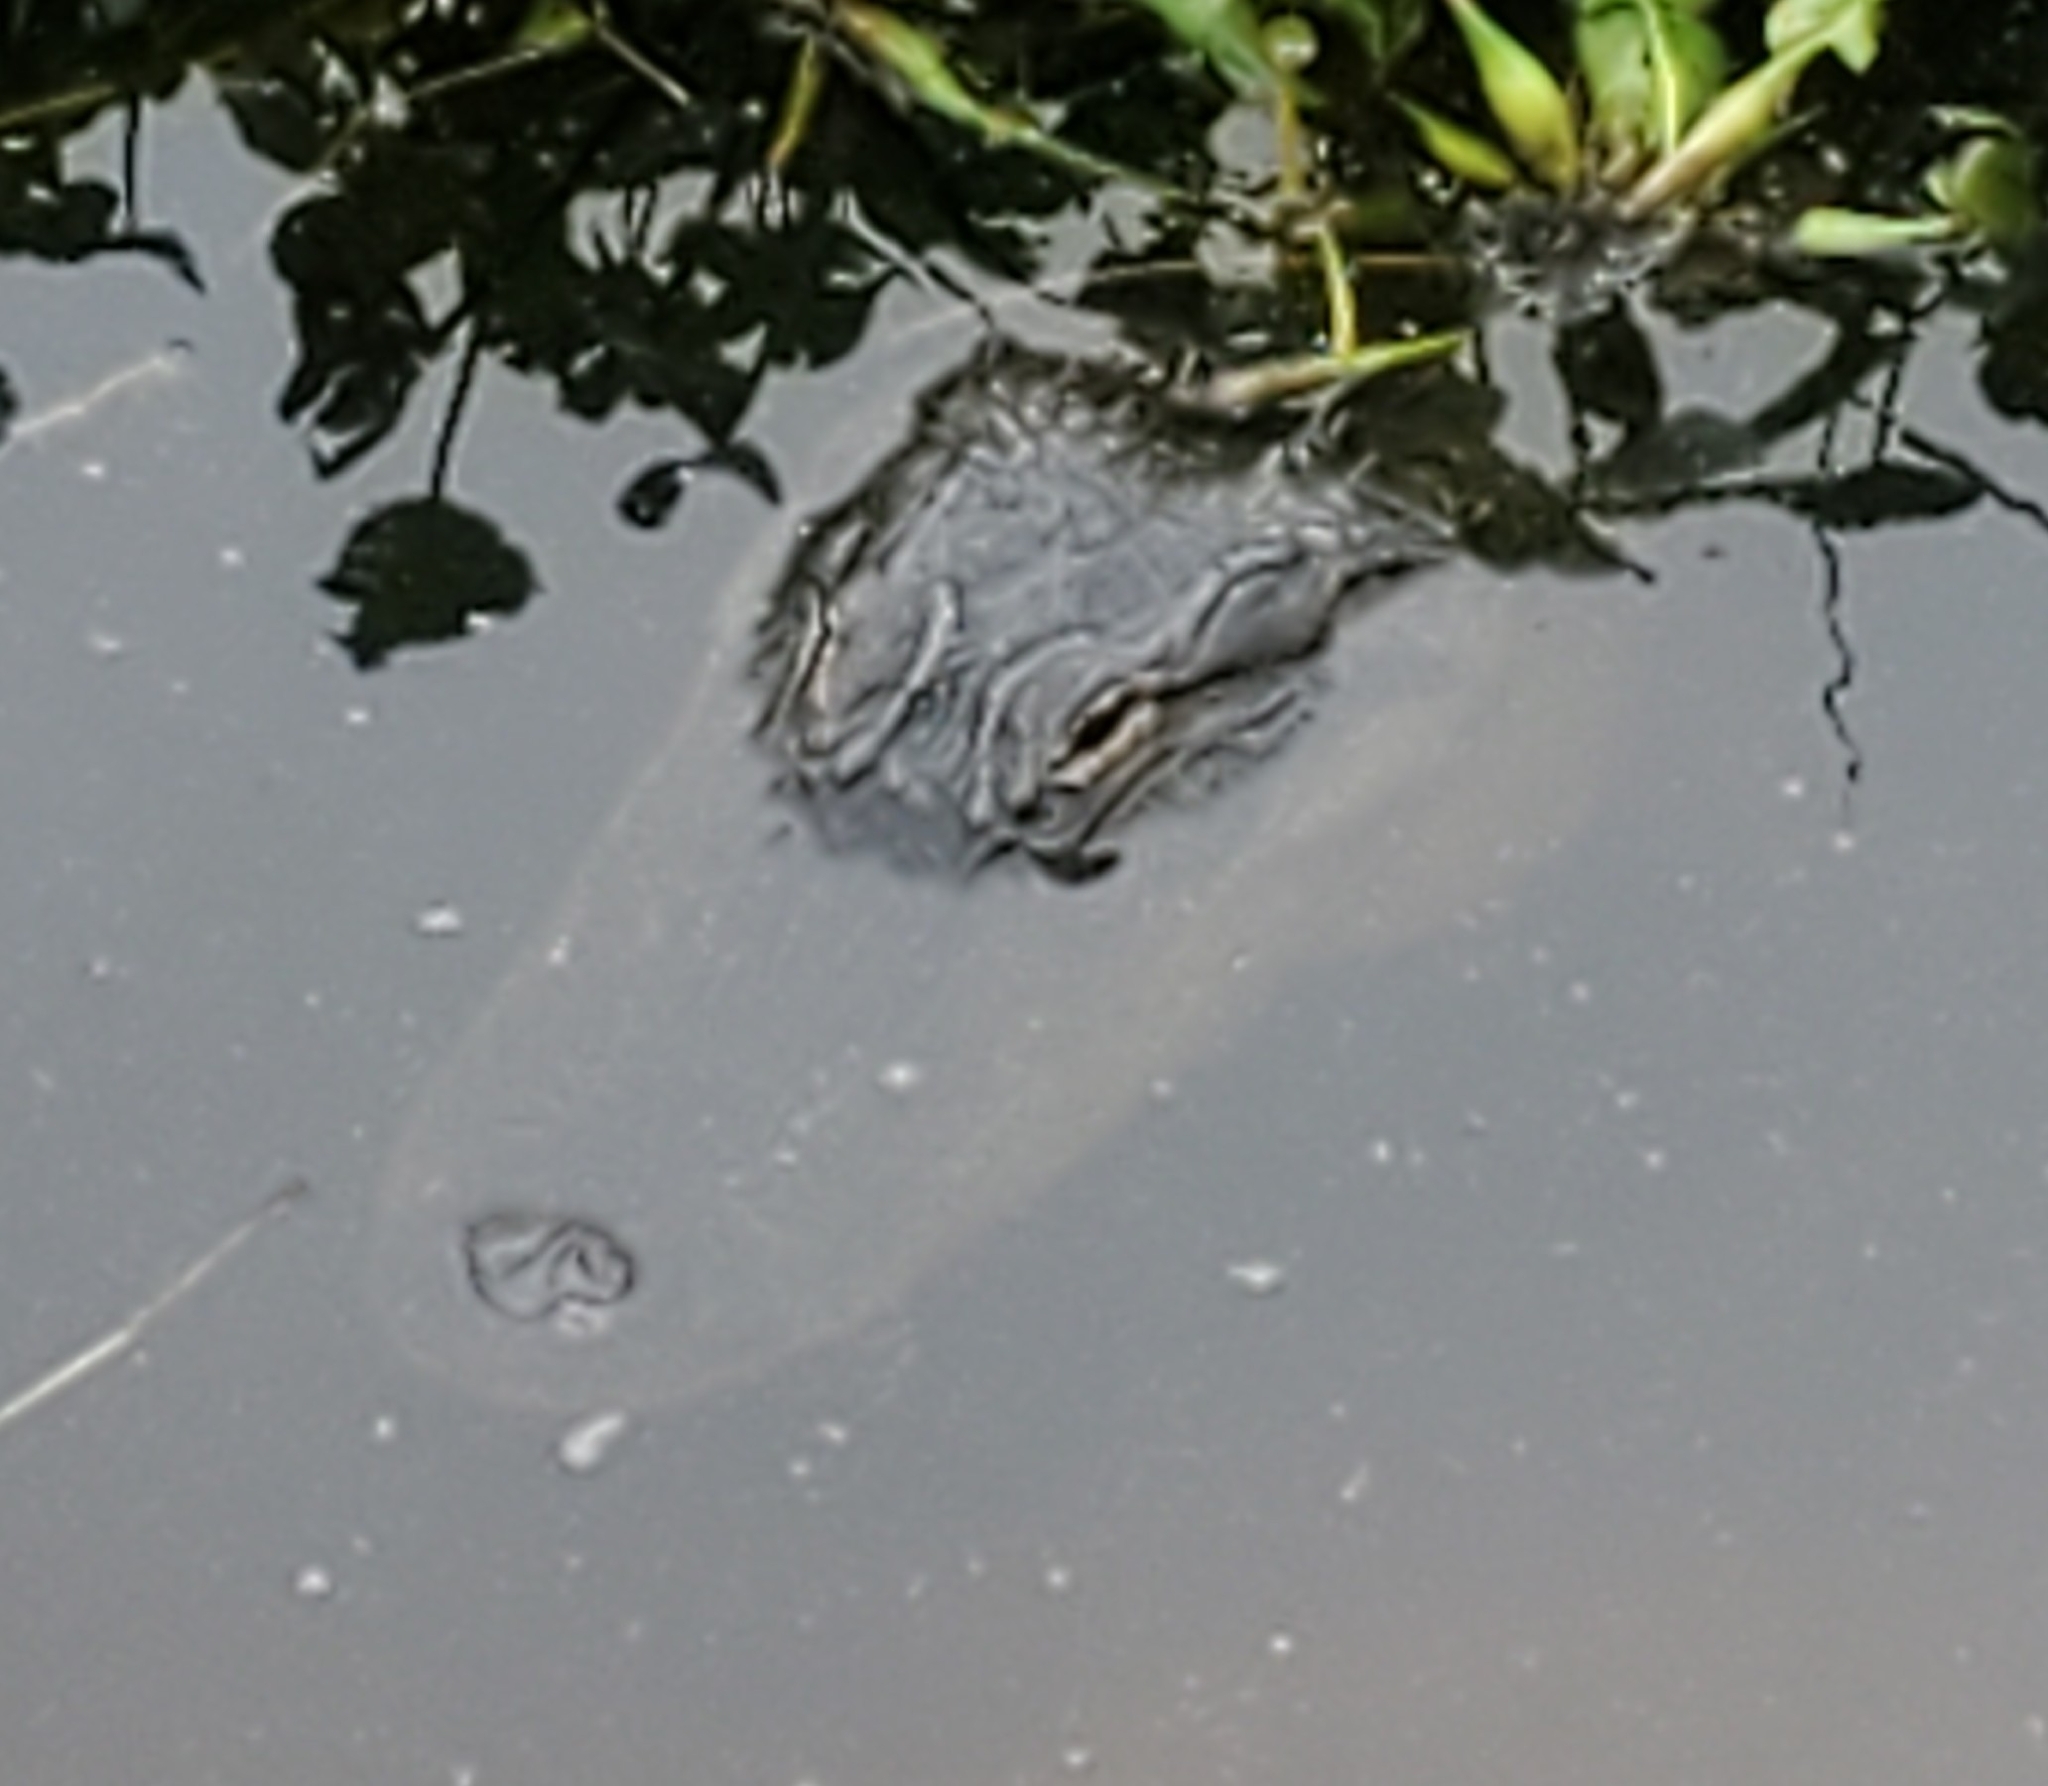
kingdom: Animalia
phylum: Chordata
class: Crocodylia
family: Alligatoridae
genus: Alligator
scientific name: Alligator mississippiensis
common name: American alligator
